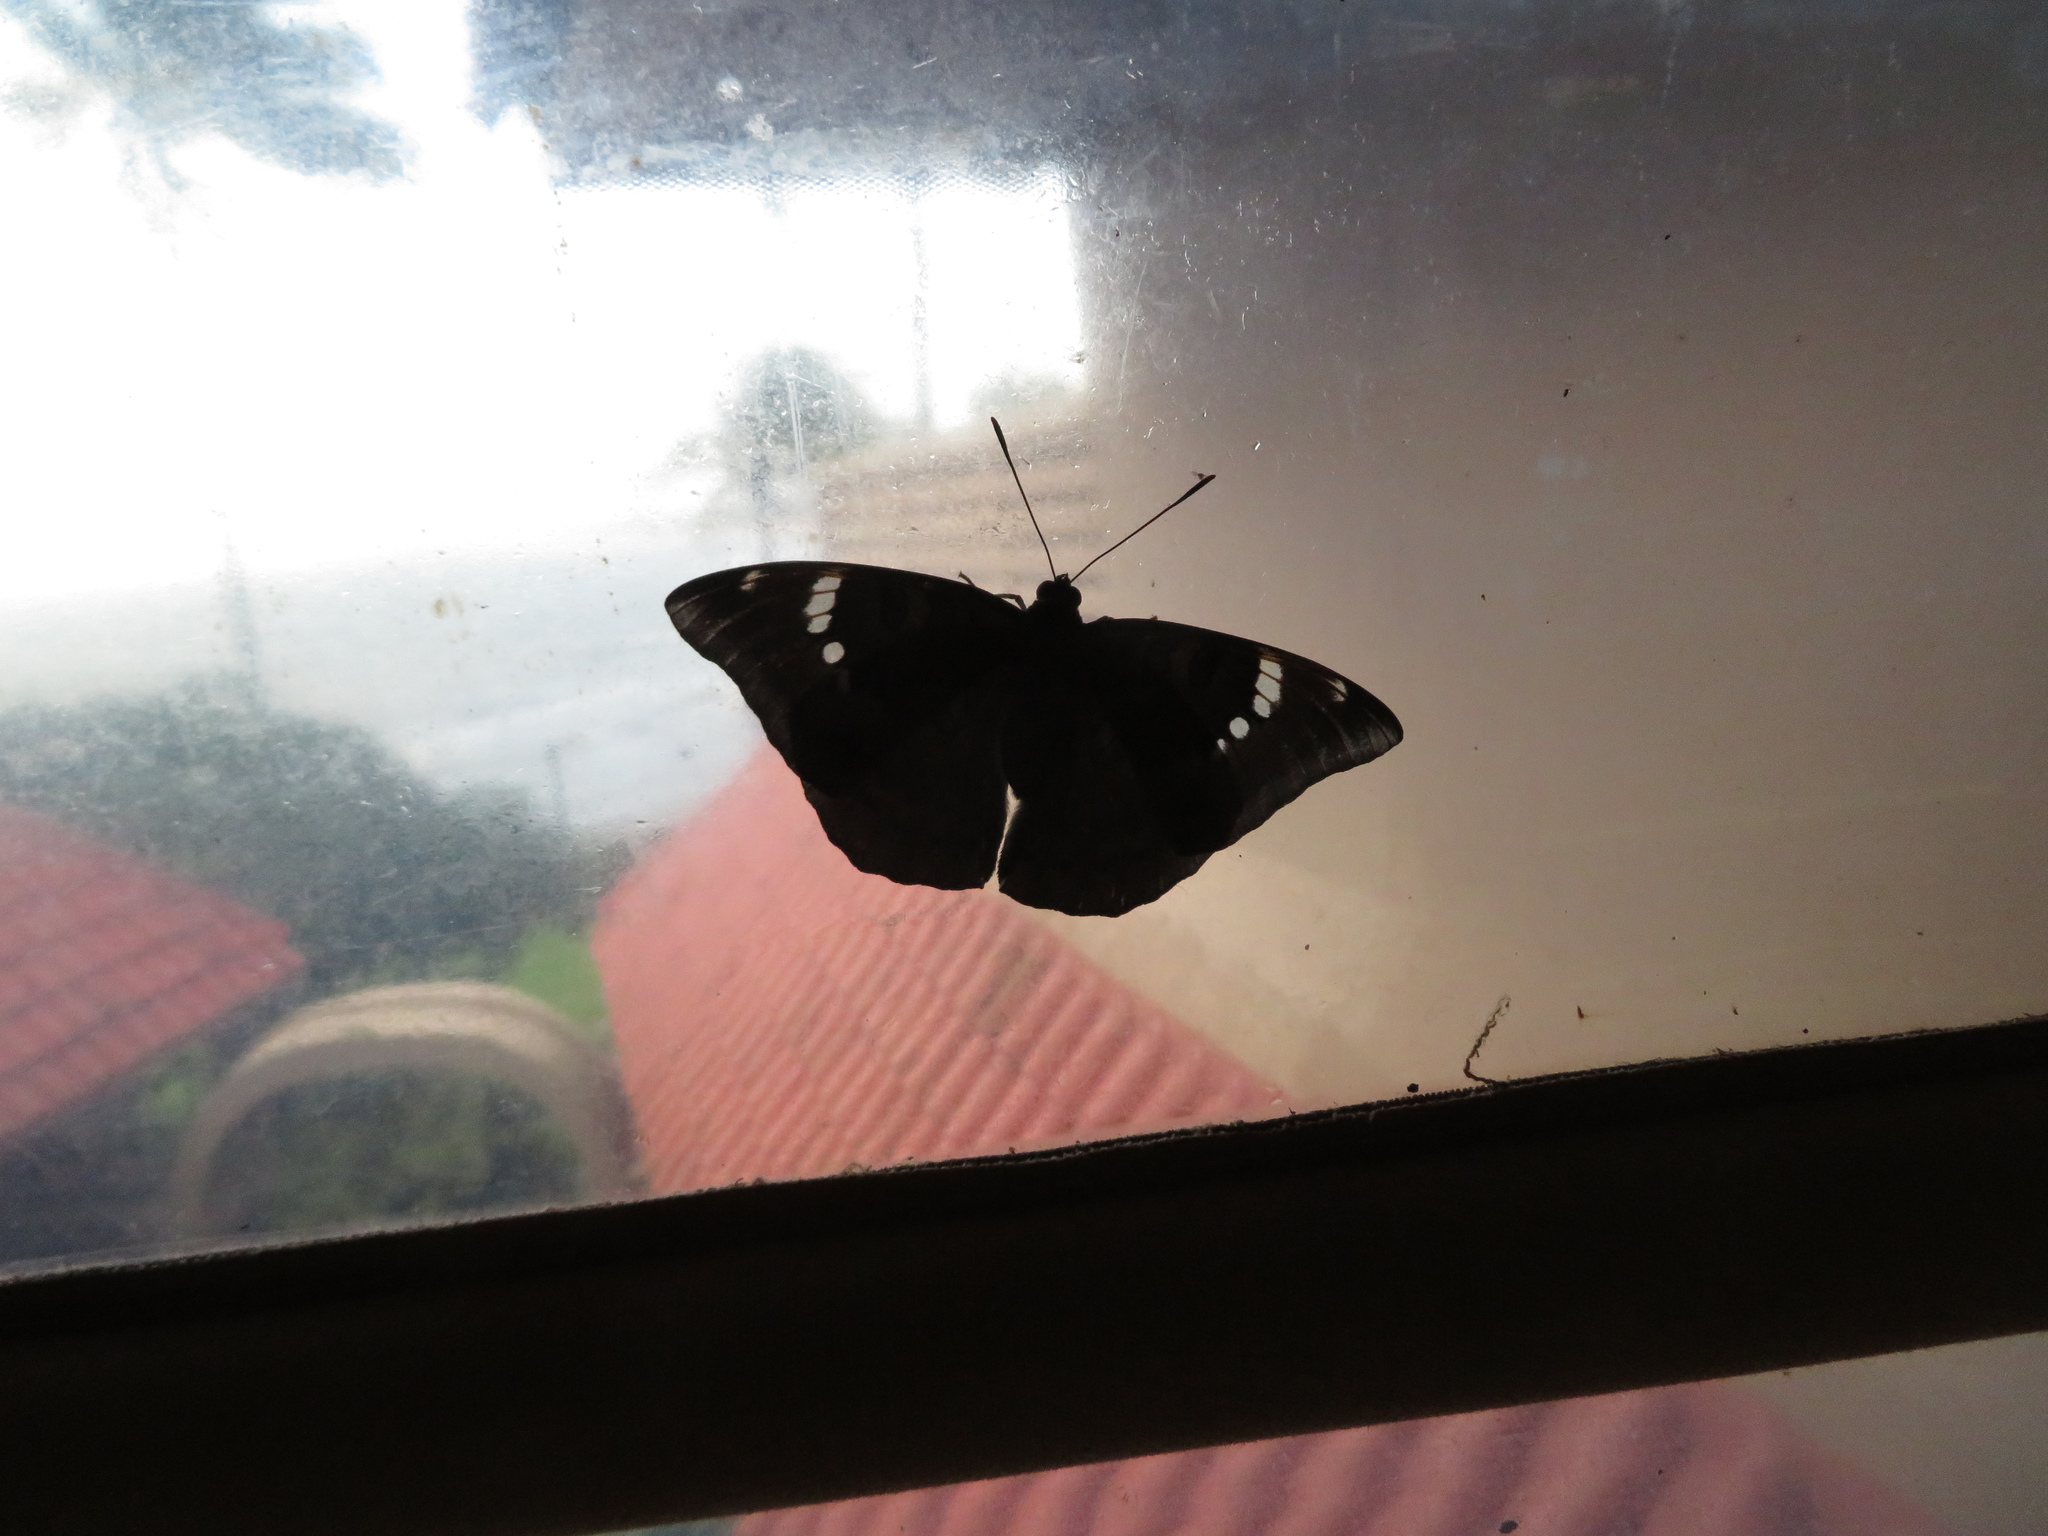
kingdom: Animalia
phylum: Arthropoda
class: Insecta
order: Lepidoptera
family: Nymphalidae
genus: Euthalia
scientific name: Euthalia aconthea
